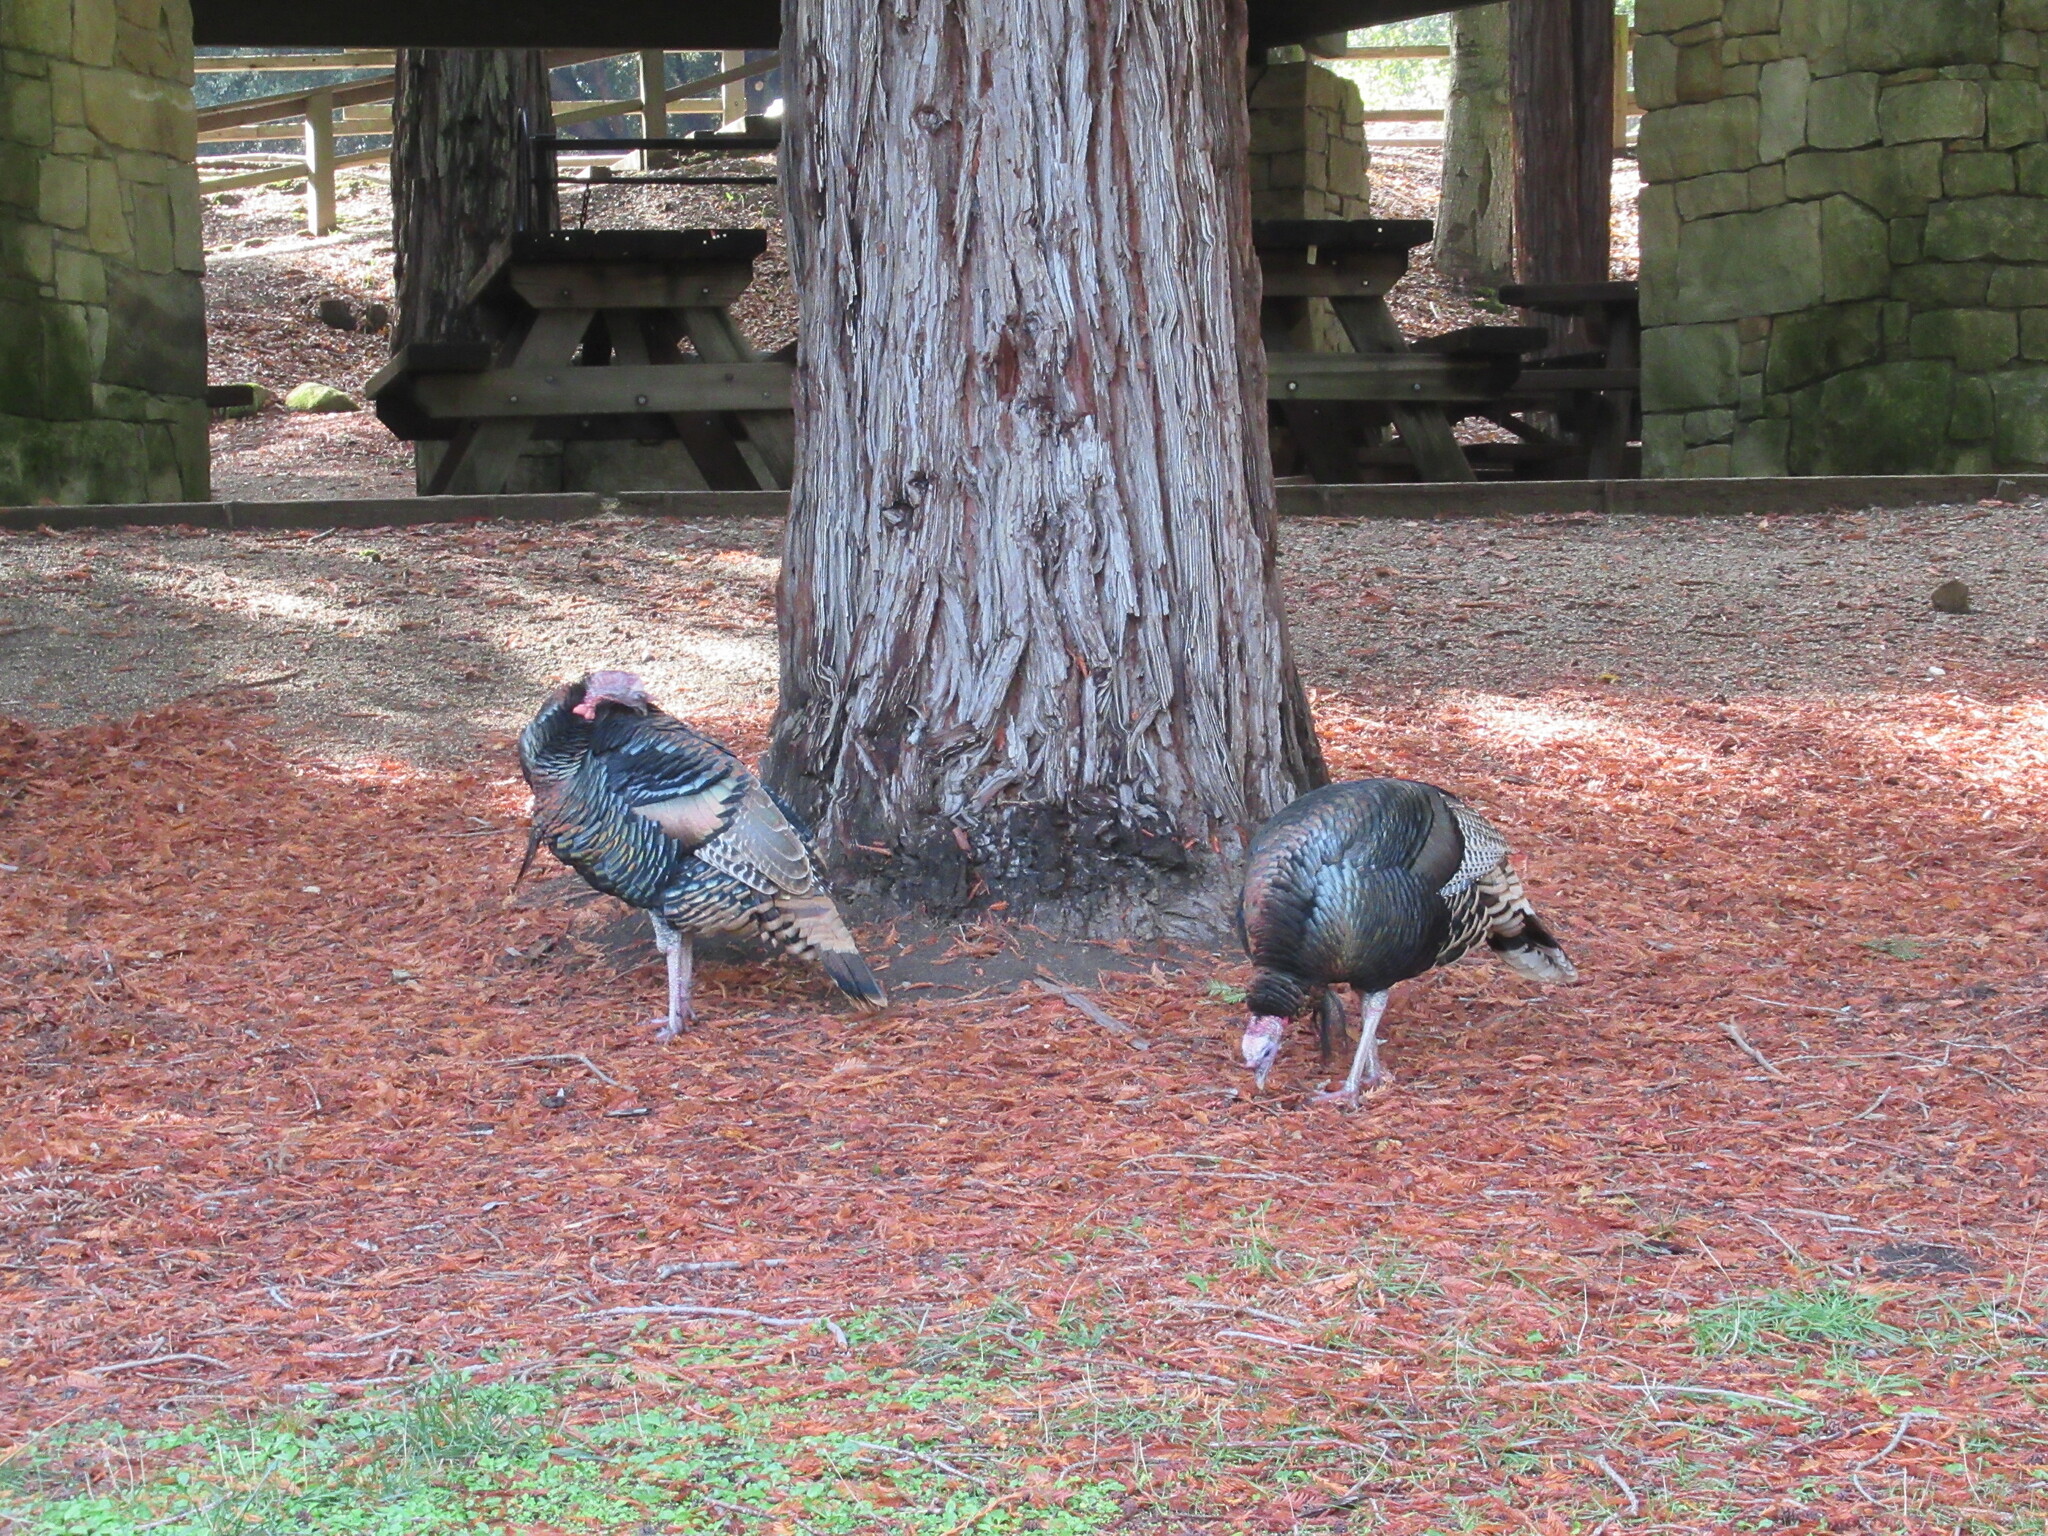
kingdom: Animalia
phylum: Chordata
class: Aves
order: Galliformes
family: Phasianidae
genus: Meleagris
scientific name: Meleagris gallopavo
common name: Wild turkey
